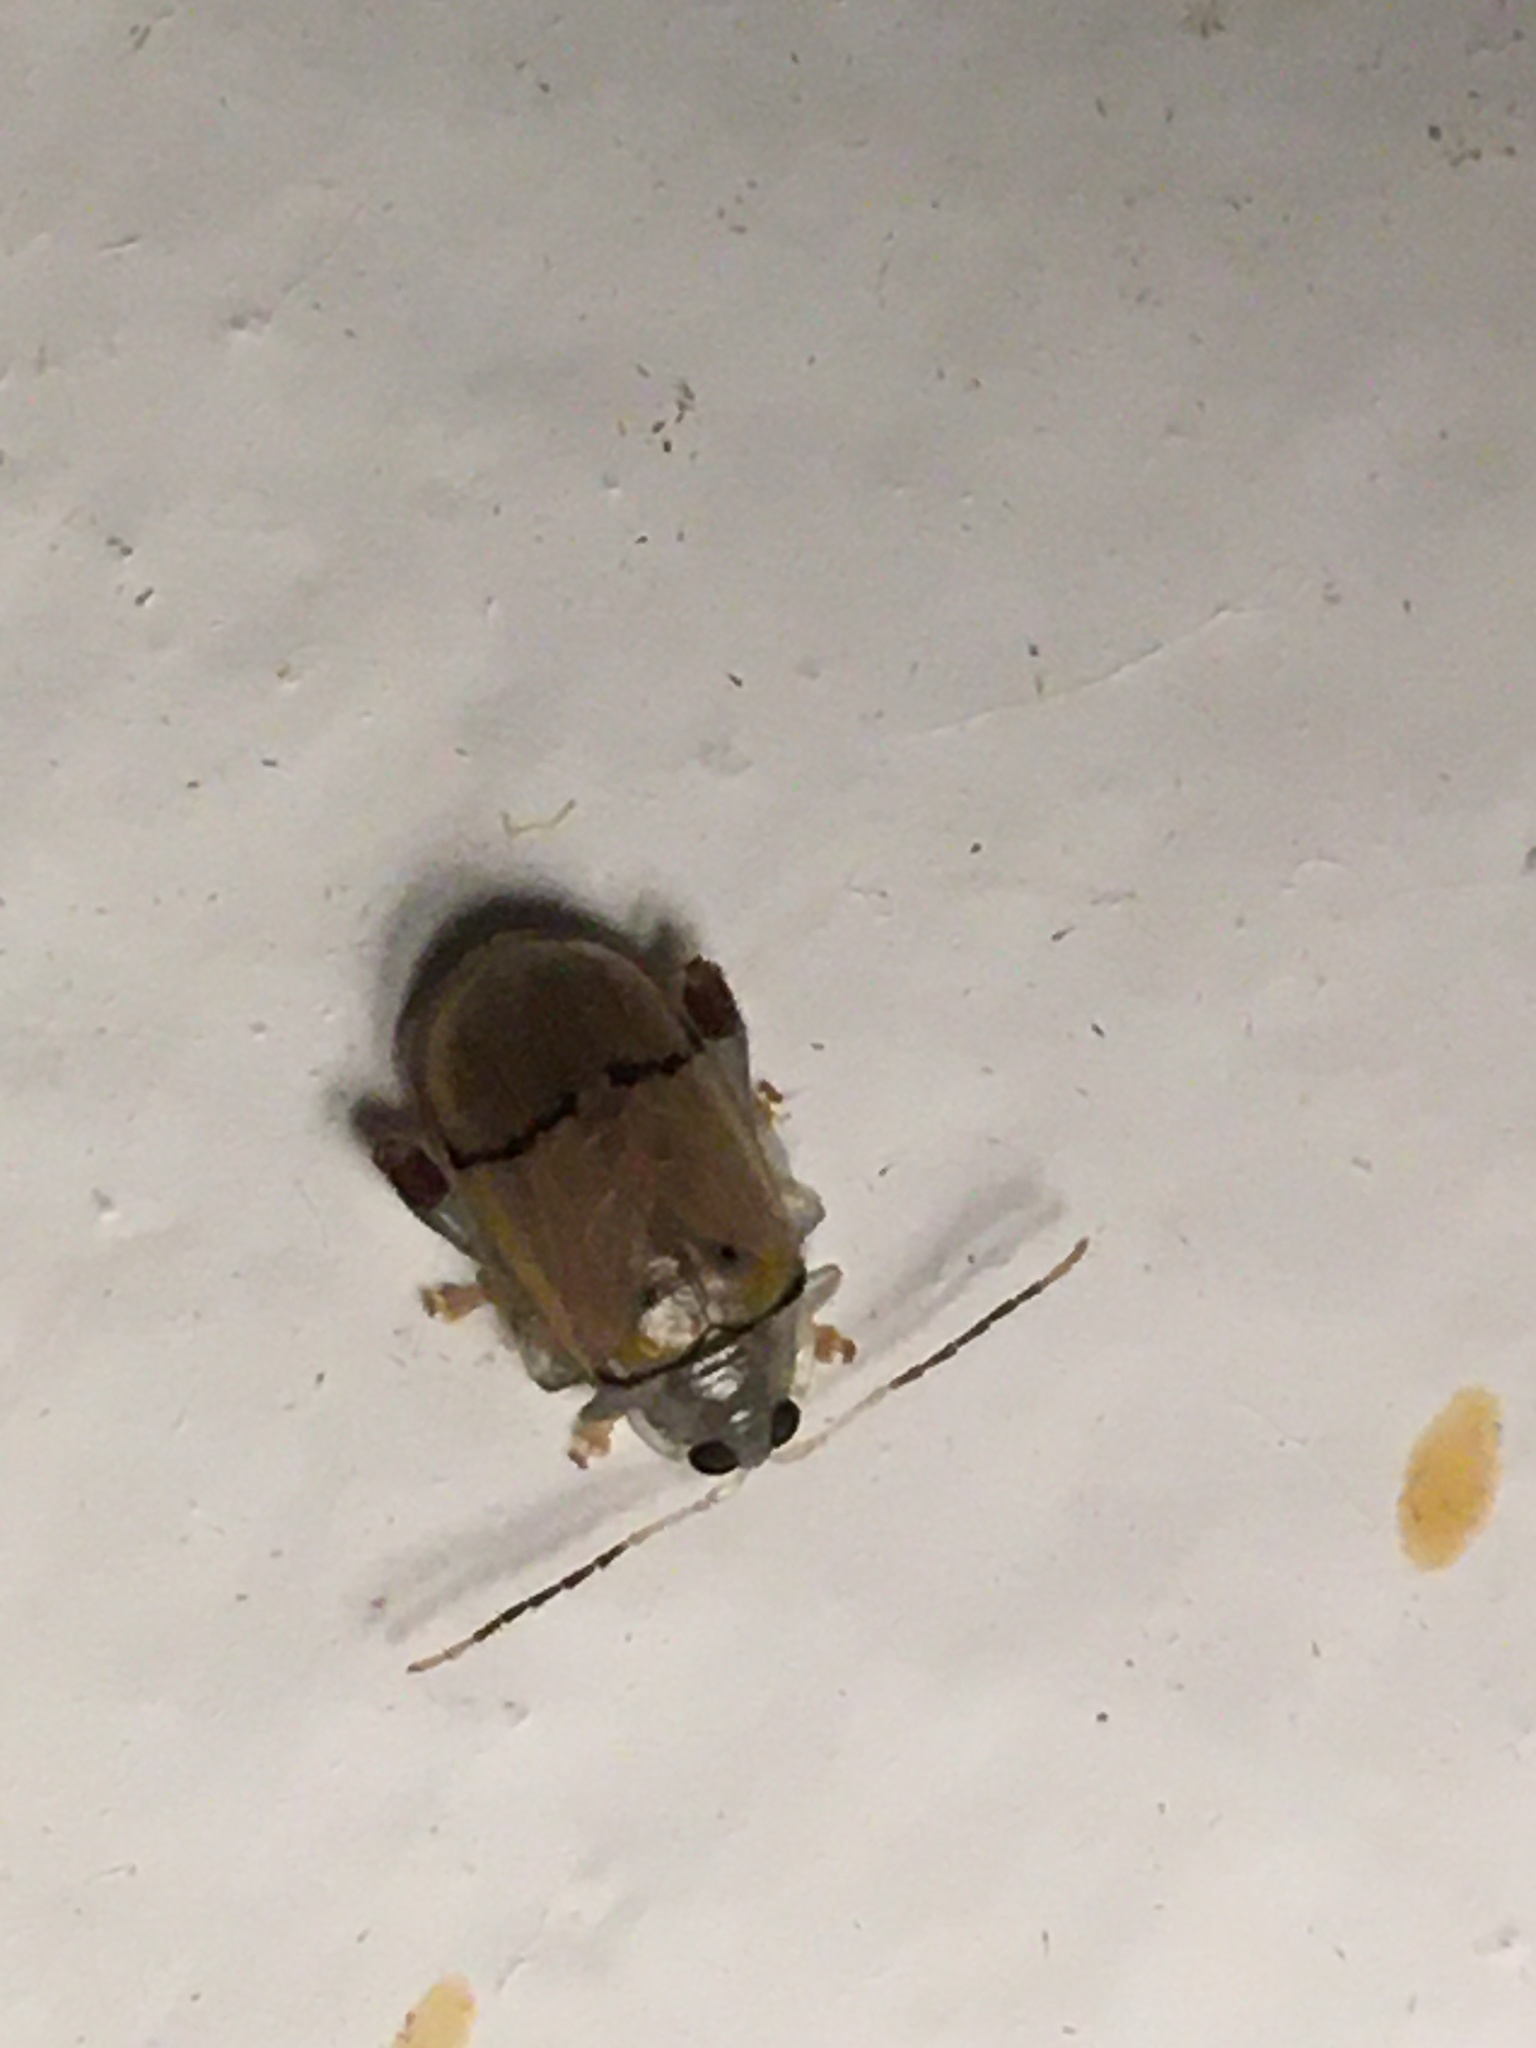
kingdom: Animalia
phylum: Arthropoda
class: Insecta
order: Coleoptera
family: Chrysomelidae
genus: Walterianella
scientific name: Walterianella
